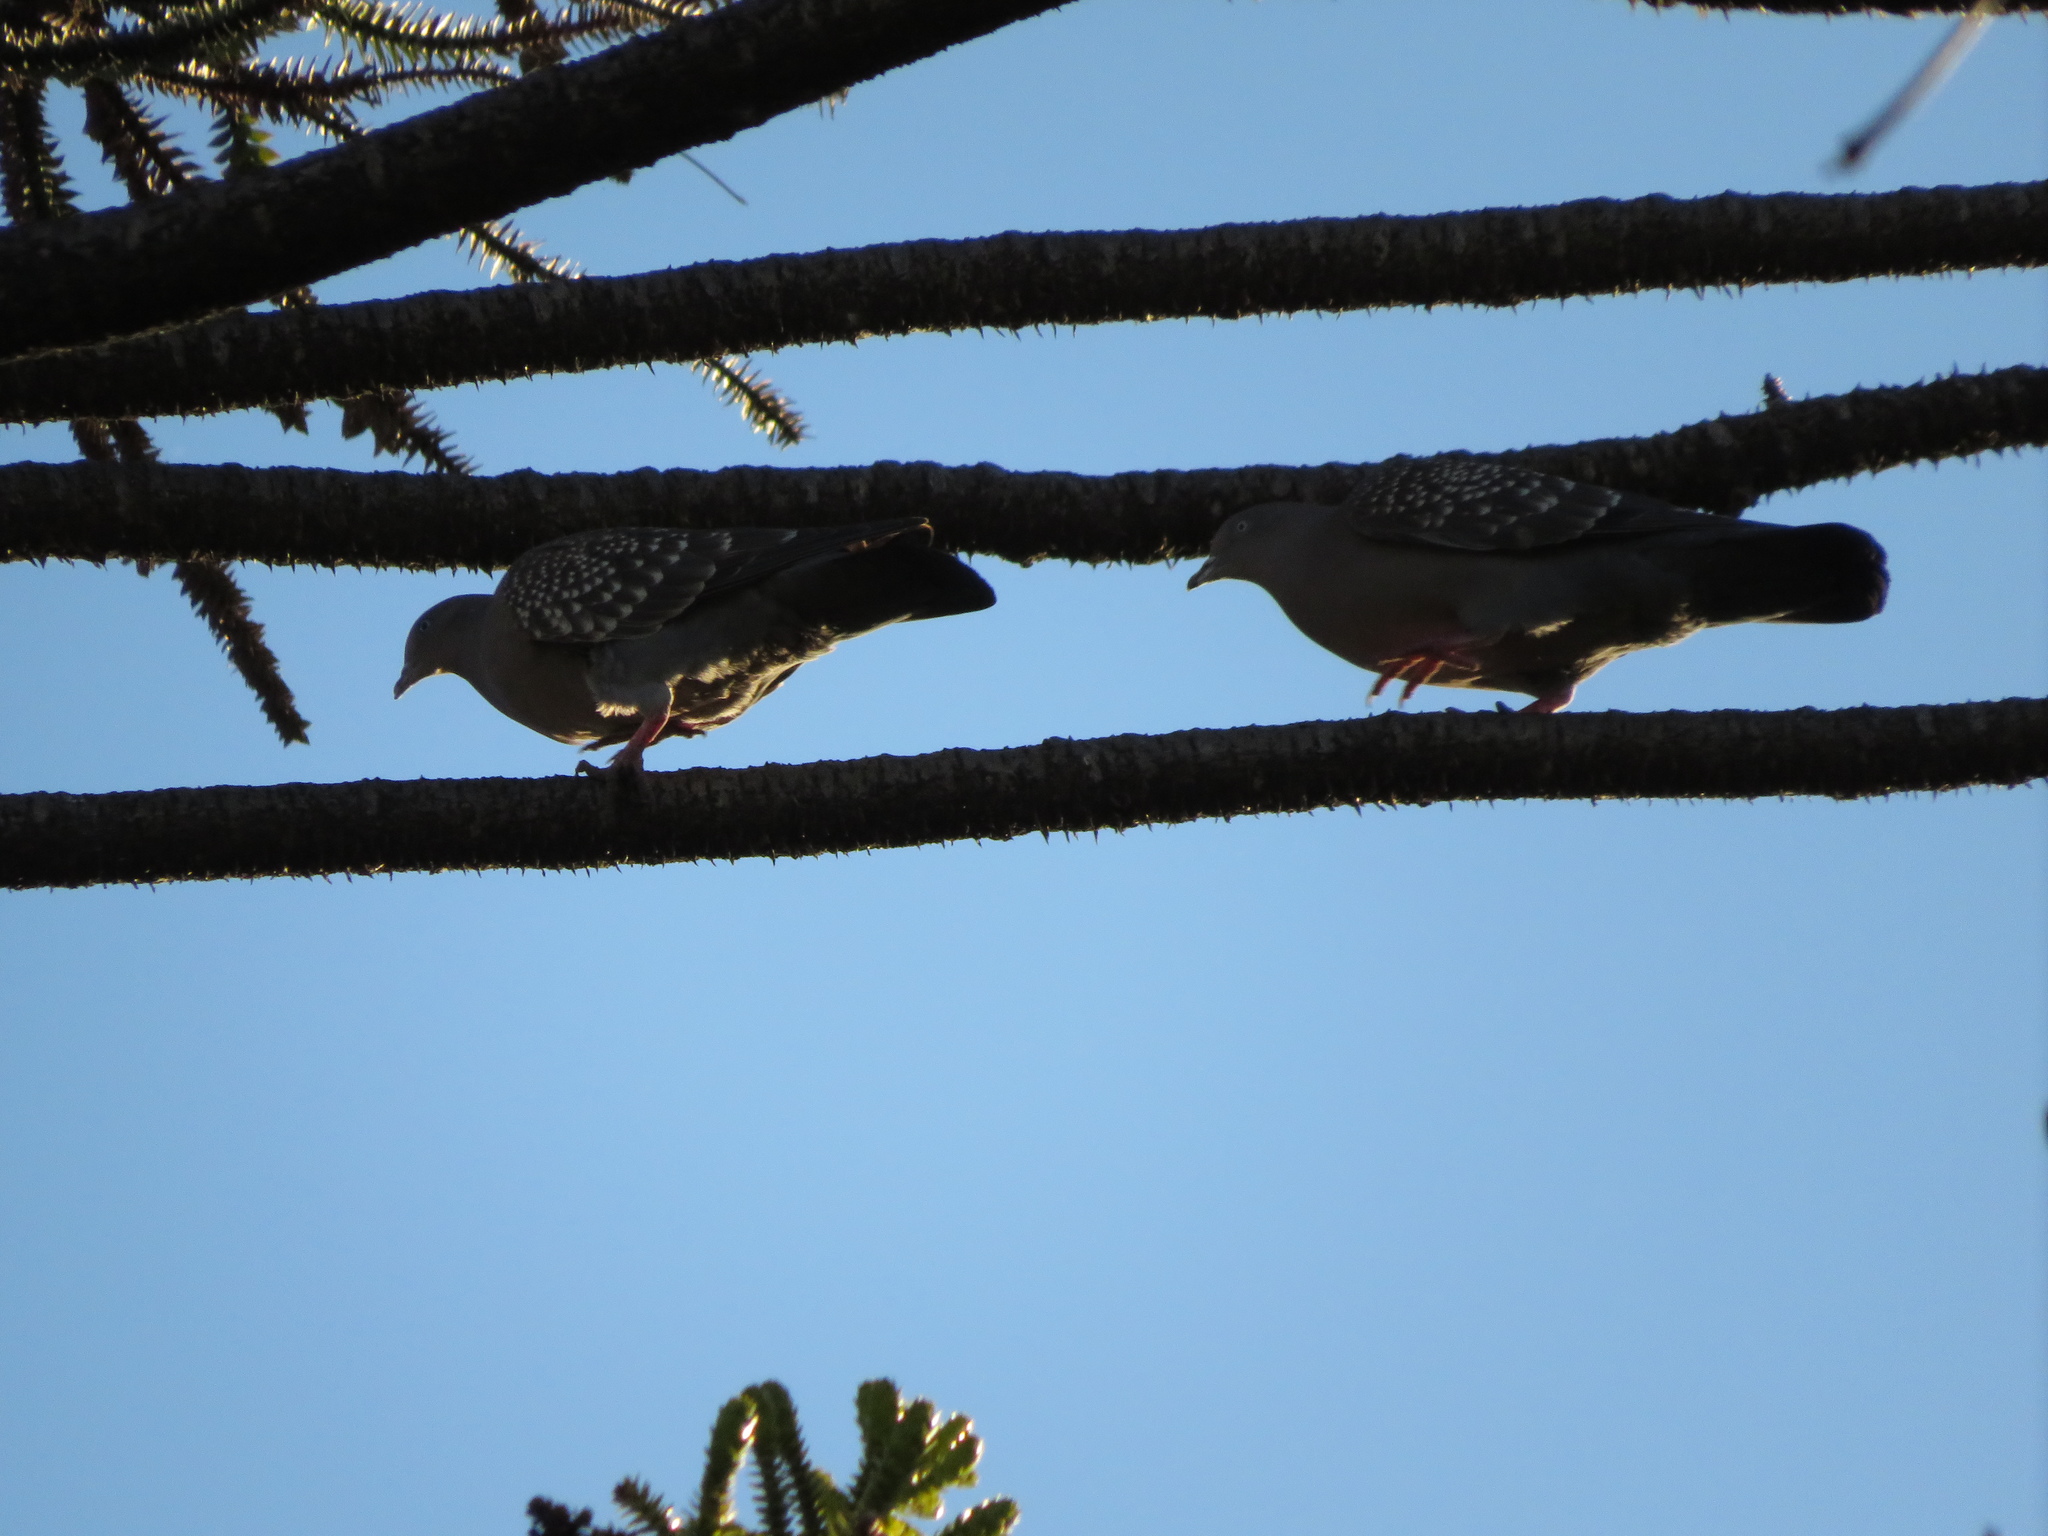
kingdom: Animalia
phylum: Chordata
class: Aves
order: Columbiformes
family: Columbidae
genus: Patagioenas
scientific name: Patagioenas maculosa
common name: Spot-winged pigeon
